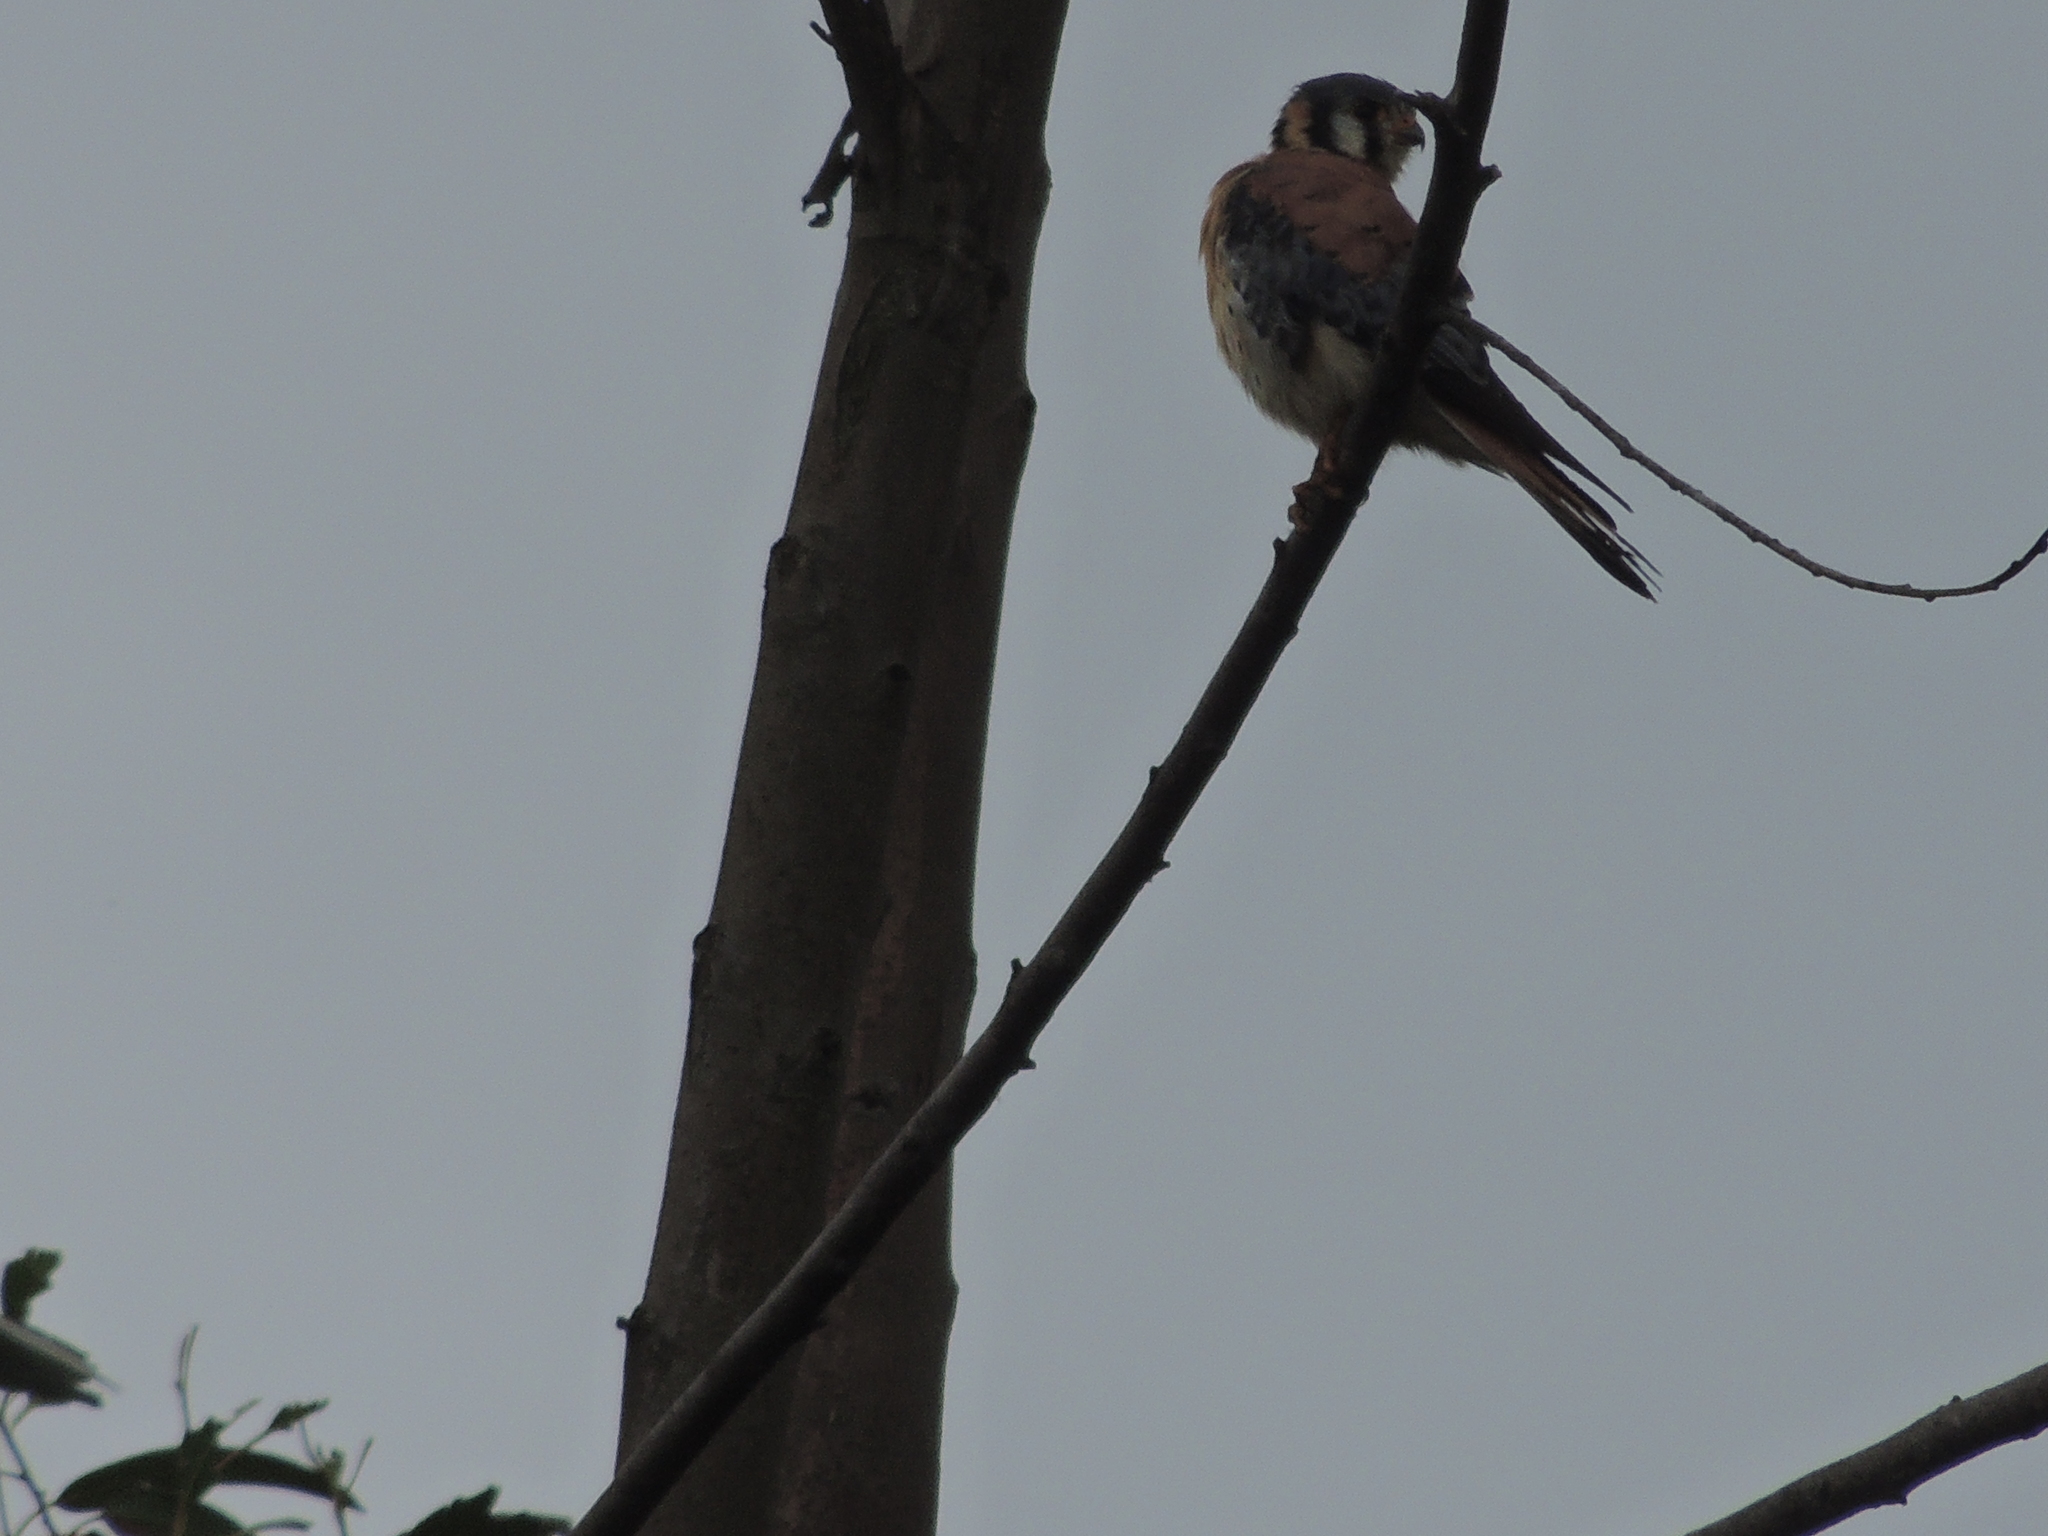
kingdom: Animalia
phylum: Chordata
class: Aves
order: Falconiformes
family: Falconidae
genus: Falco
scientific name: Falco sparverius
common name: American kestrel
